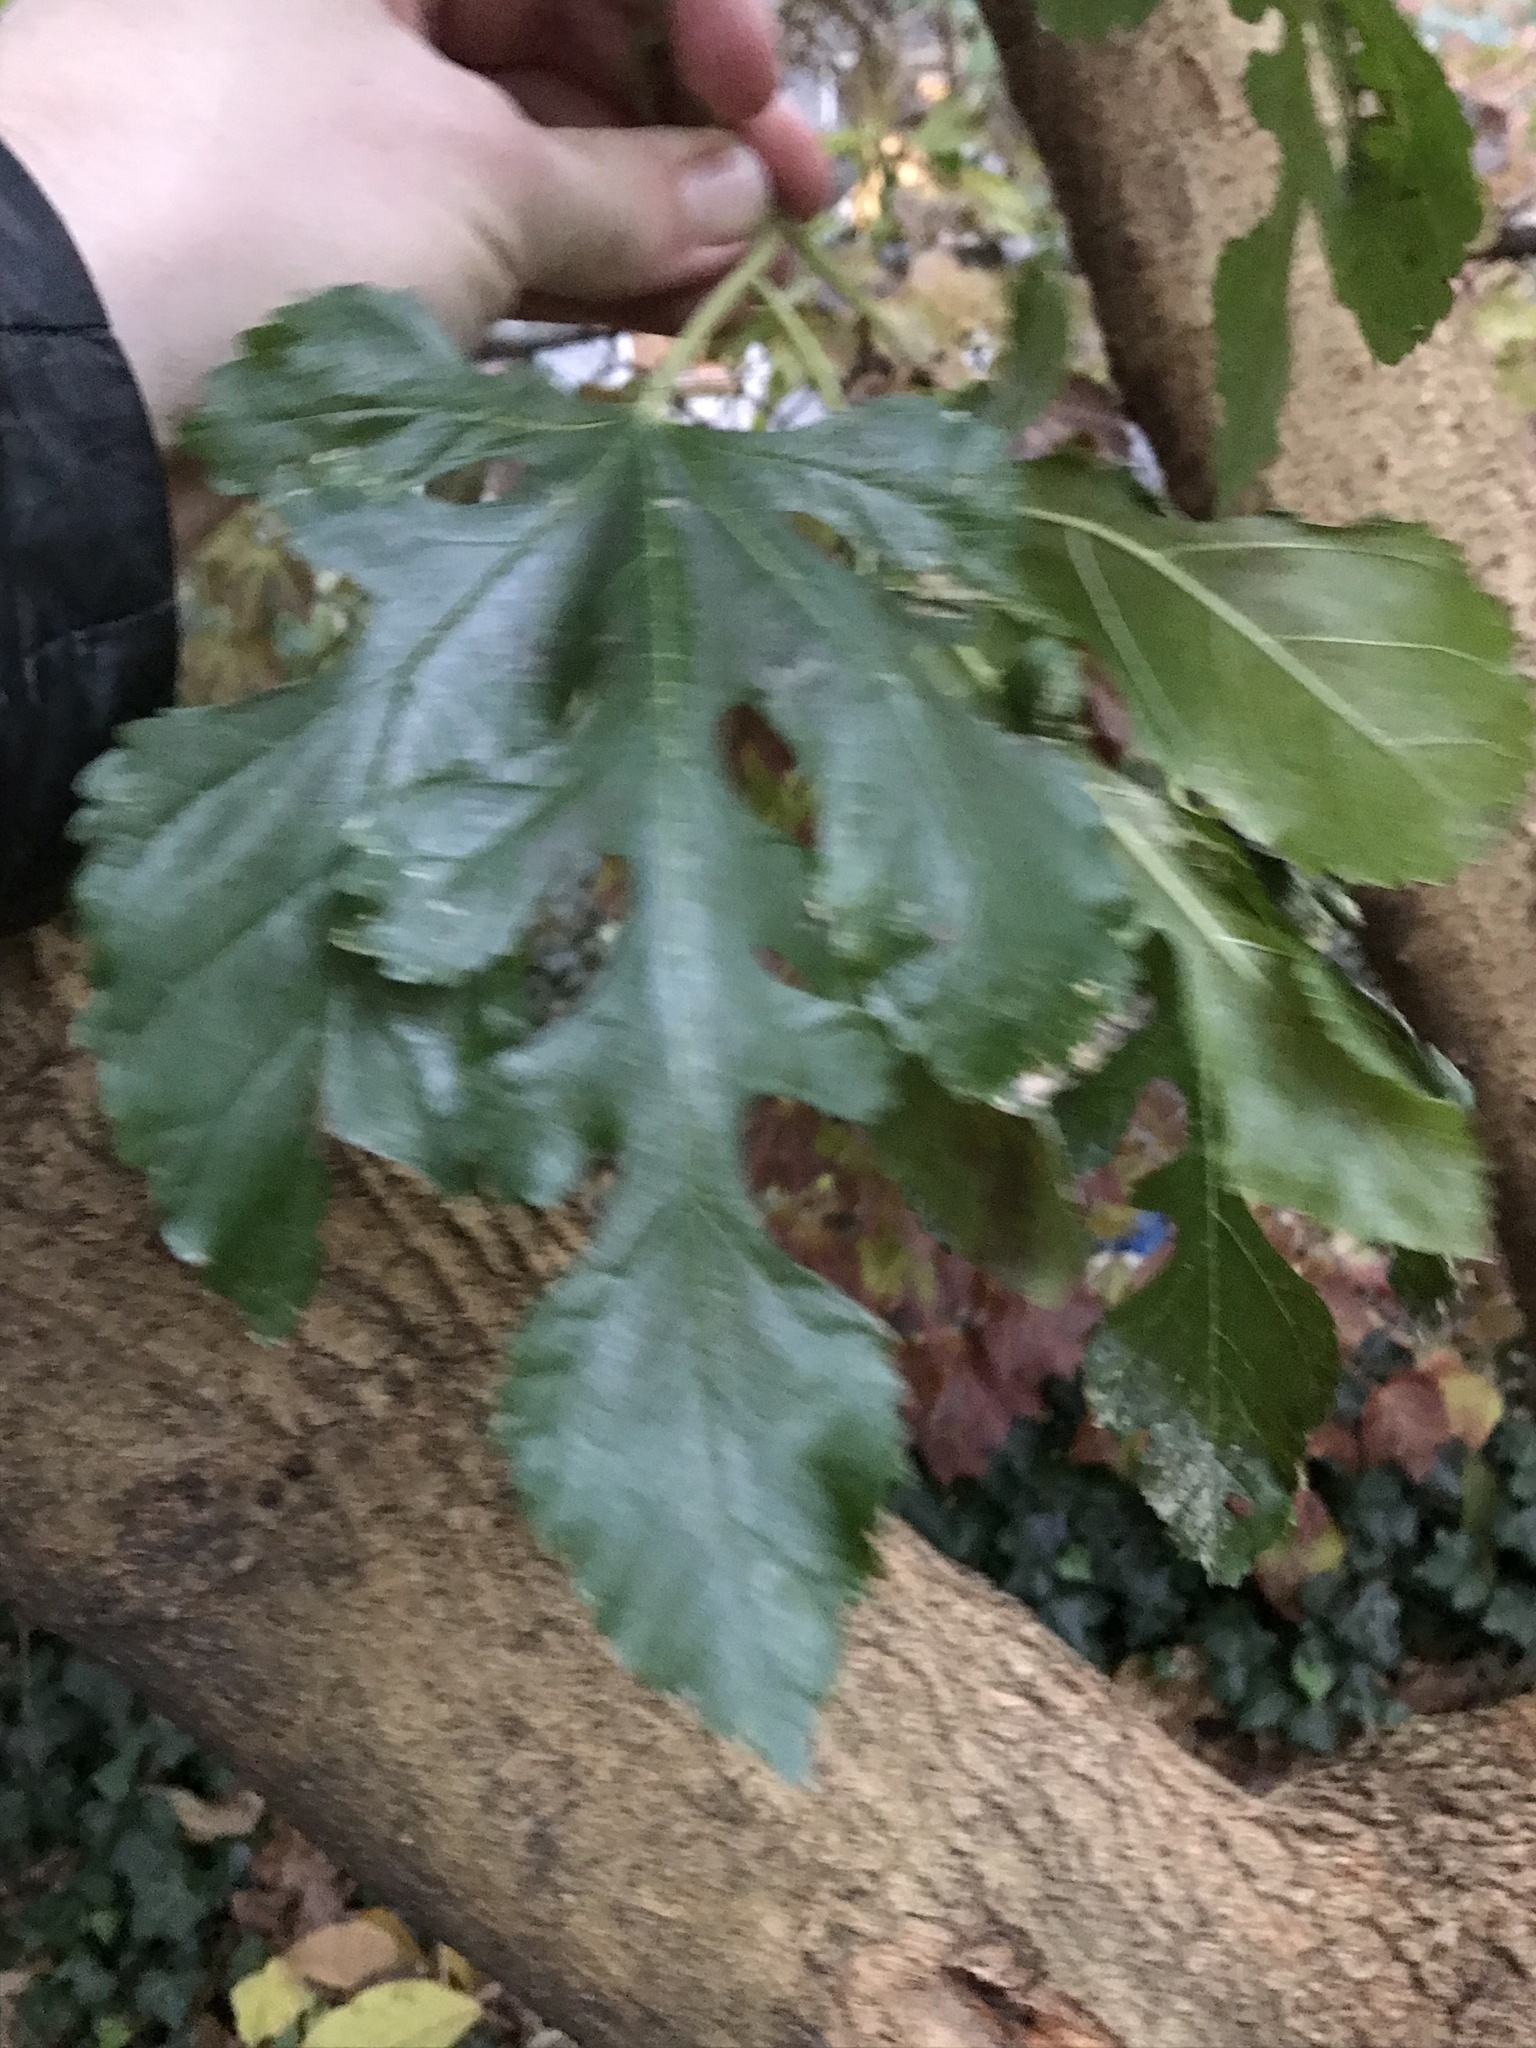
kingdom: Plantae
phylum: Tracheophyta
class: Magnoliopsida
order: Rosales
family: Moraceae
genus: Morus
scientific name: Morus alba
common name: White mulberry
